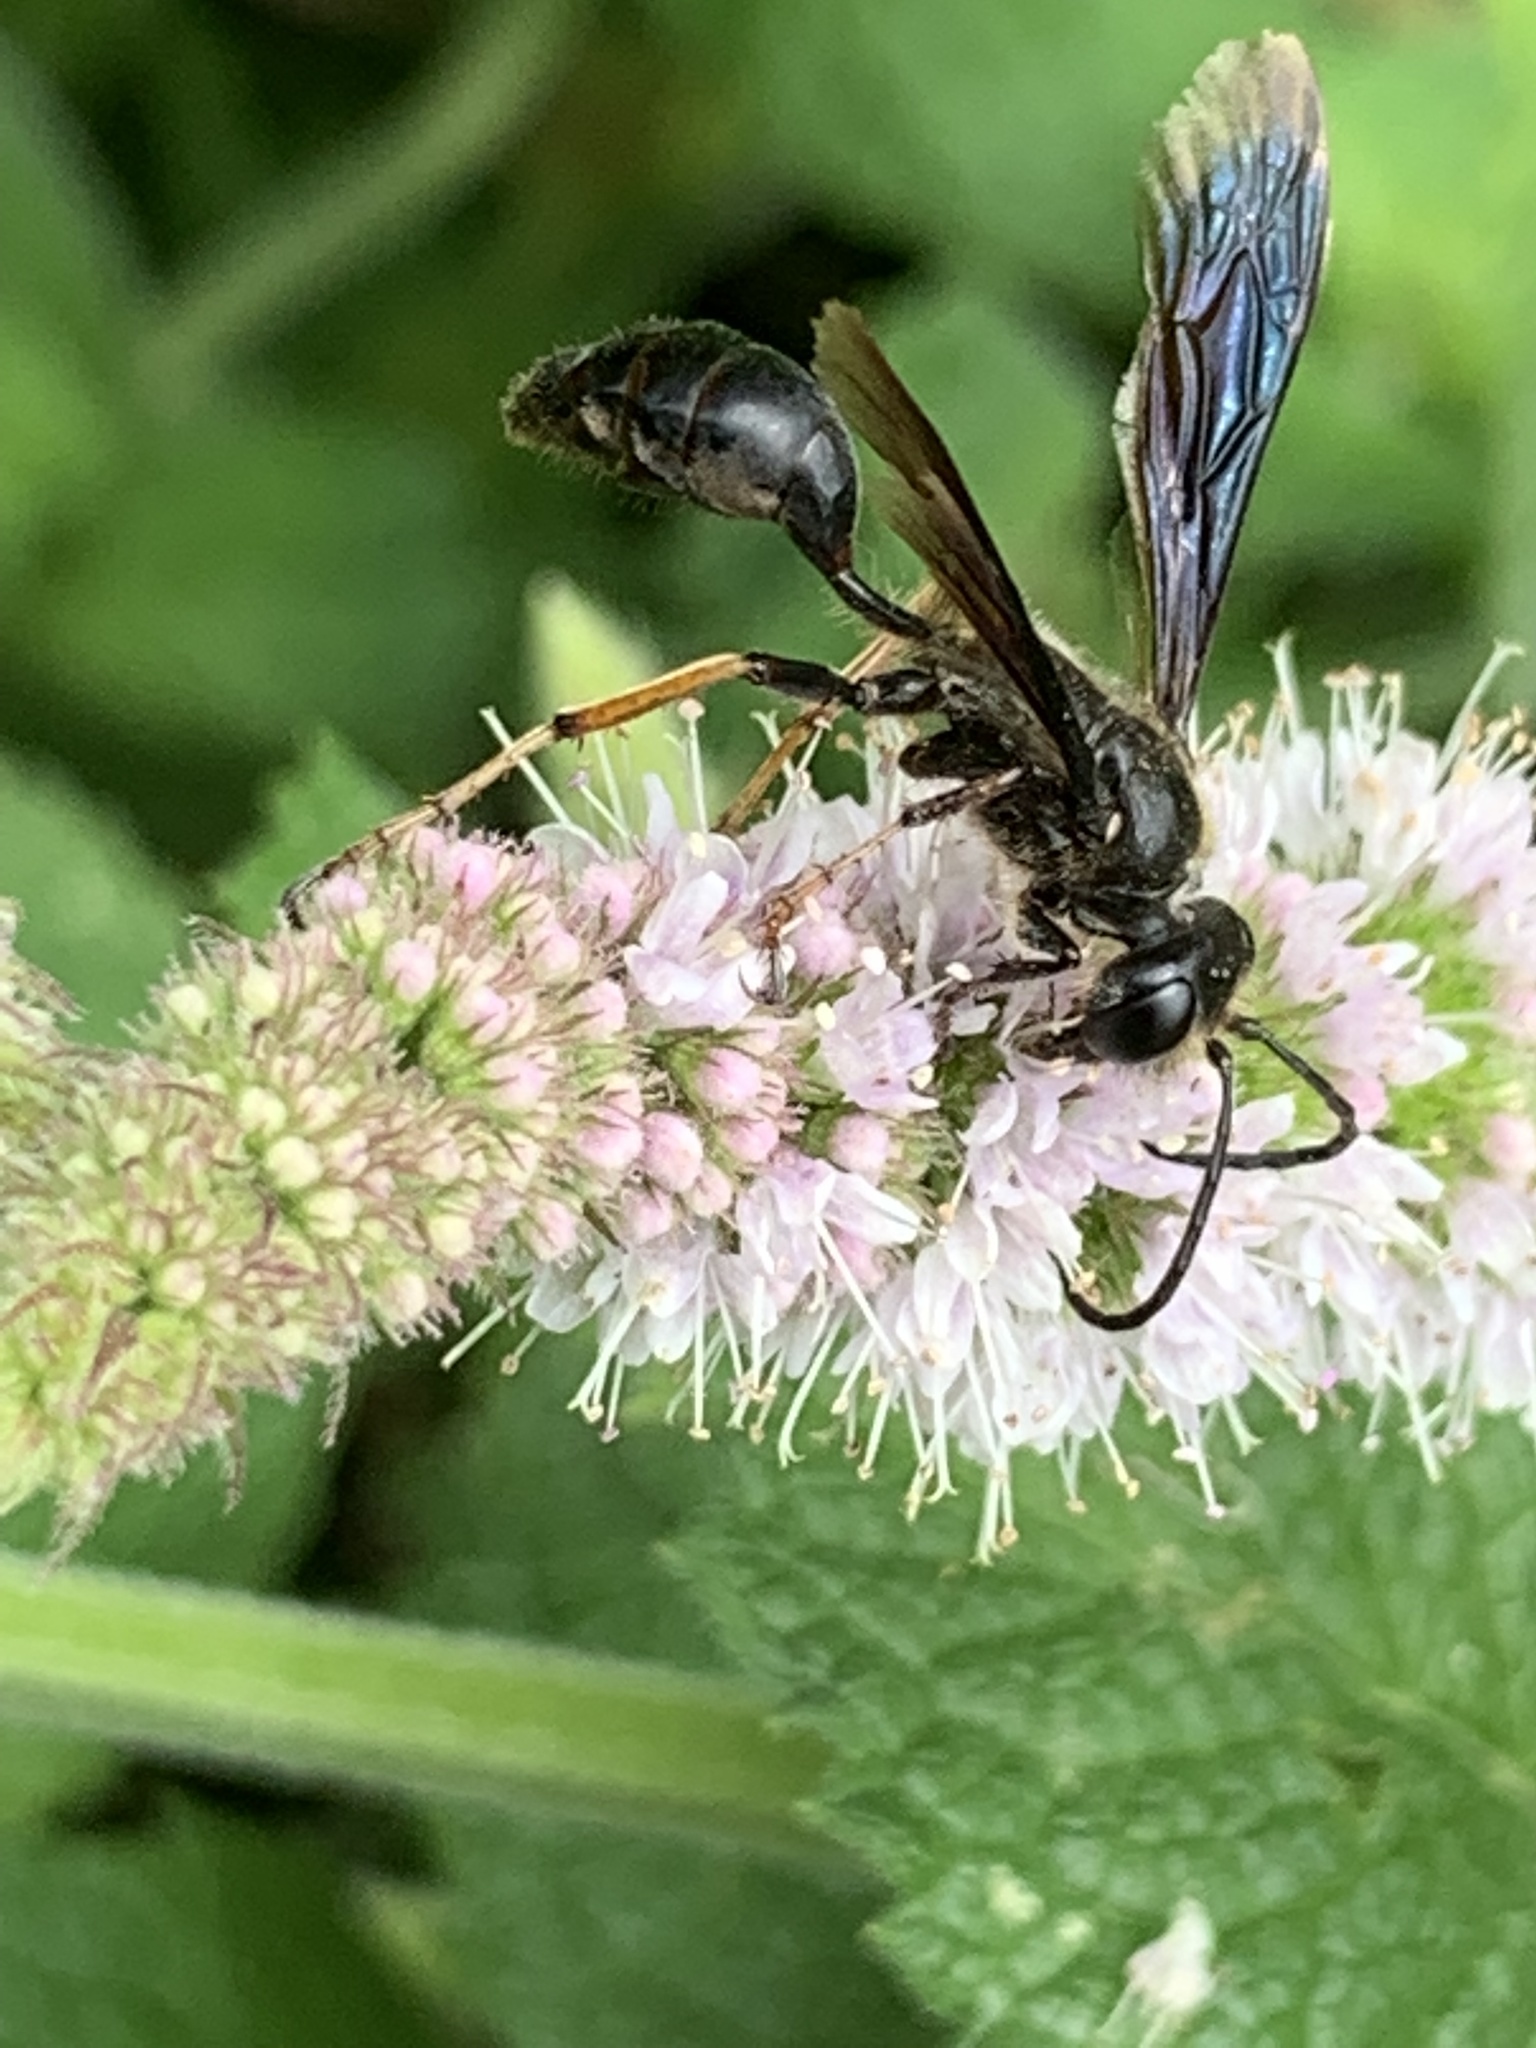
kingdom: Animalia
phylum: Arthropoda
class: Insecta
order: Hymenoptera
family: Sphecidae
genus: Isodontia
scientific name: Isodontia auripes
